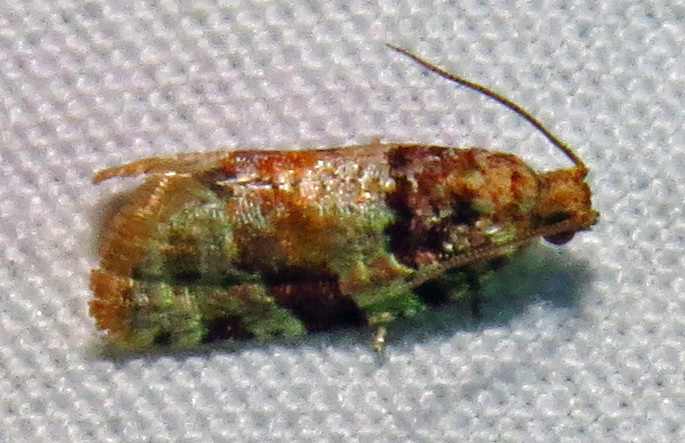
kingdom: Animalia
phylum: Arthropoda
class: Insecta
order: Lepidoptera
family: Tortricidae
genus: Argyrotaenia
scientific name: Argyrotaenia velutinana
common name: Red-banded leafroller moth
